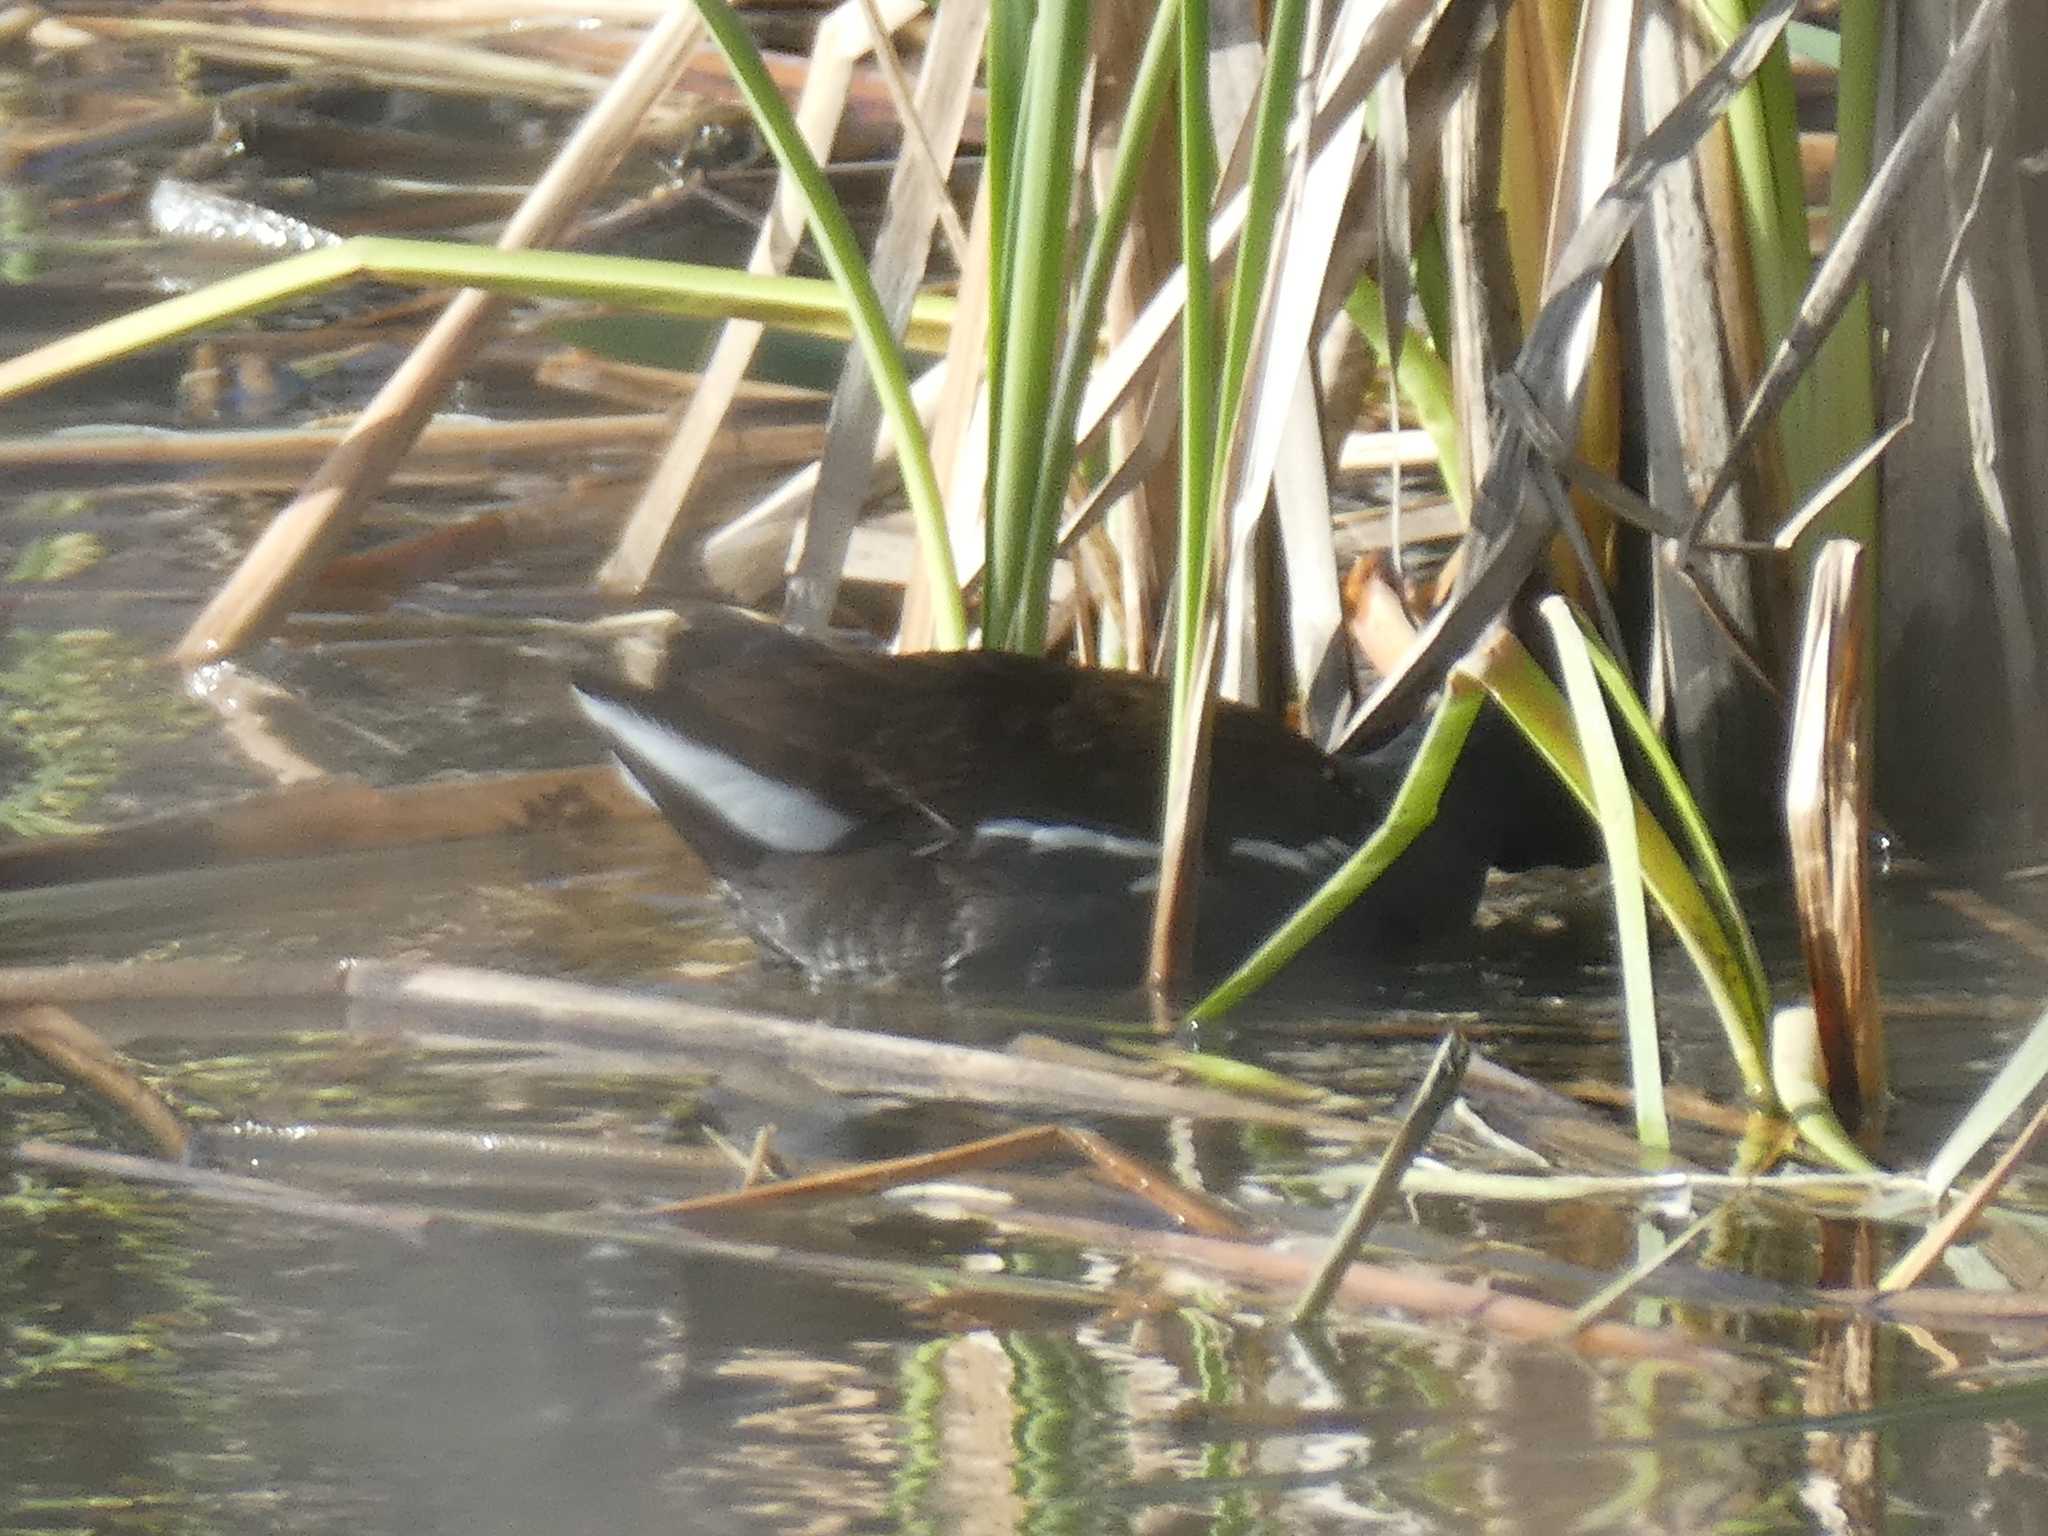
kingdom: Animalia
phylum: Chordata
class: Aves
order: Gruiformes
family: Rallidae
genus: Gallinula
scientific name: Gallinula chloropus
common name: Common moorhen
